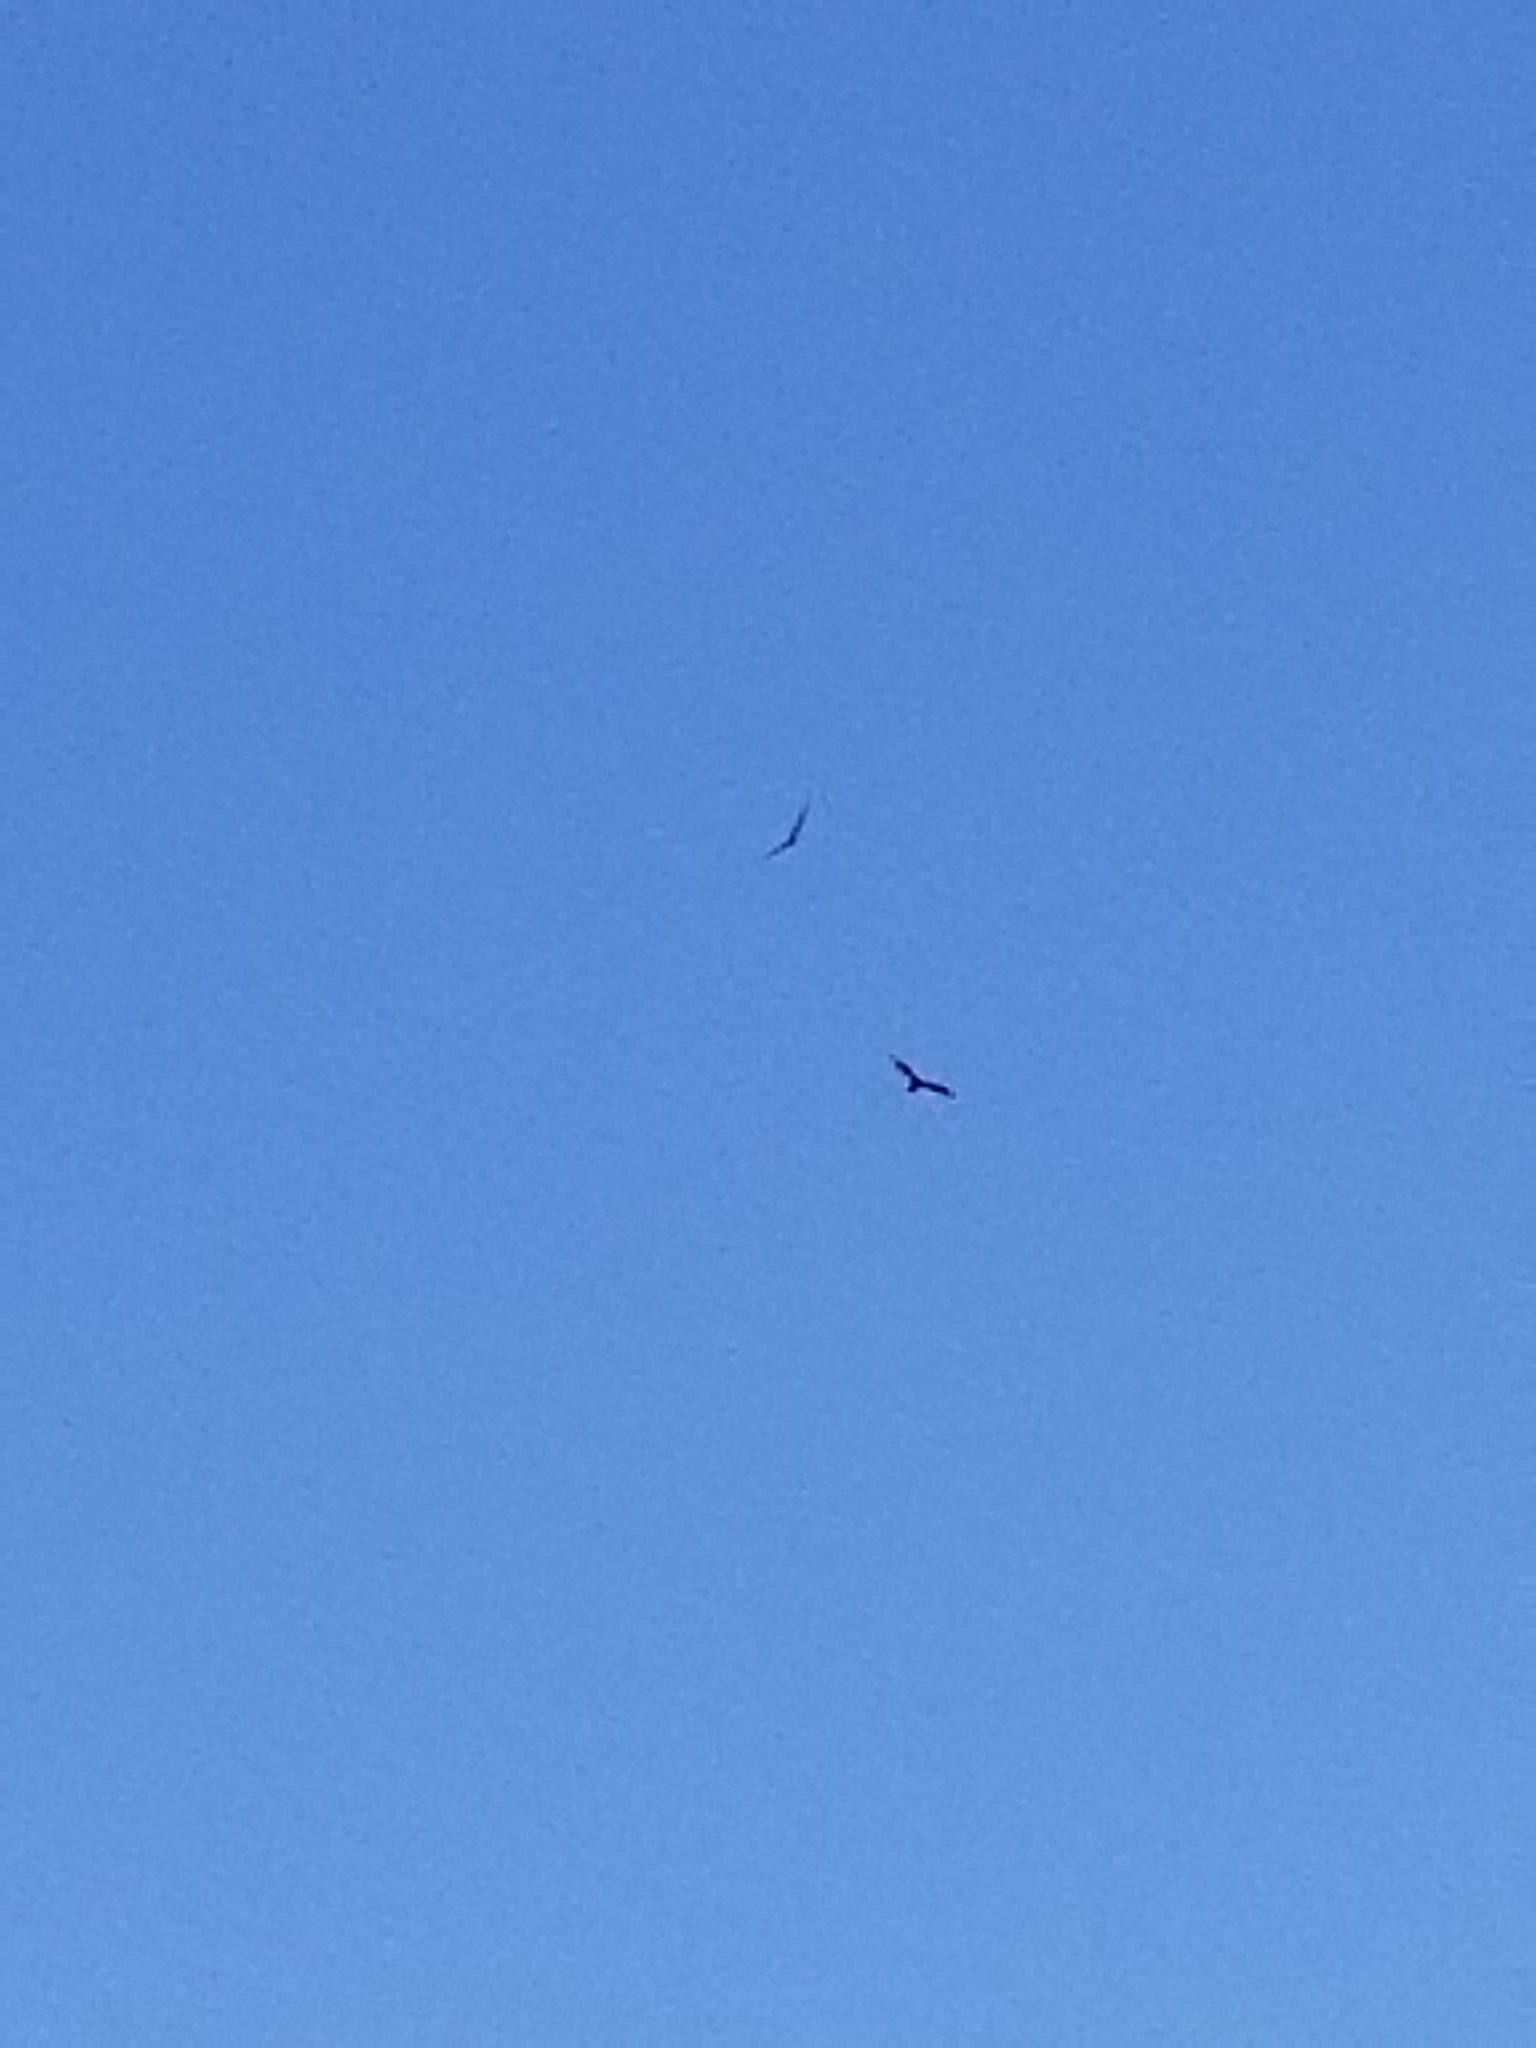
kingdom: Animalia
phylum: Chordata
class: Aves
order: Accipitriformes
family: Cathartidae
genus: Cathartes
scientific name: Cathartes aura
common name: Turkey vulture
